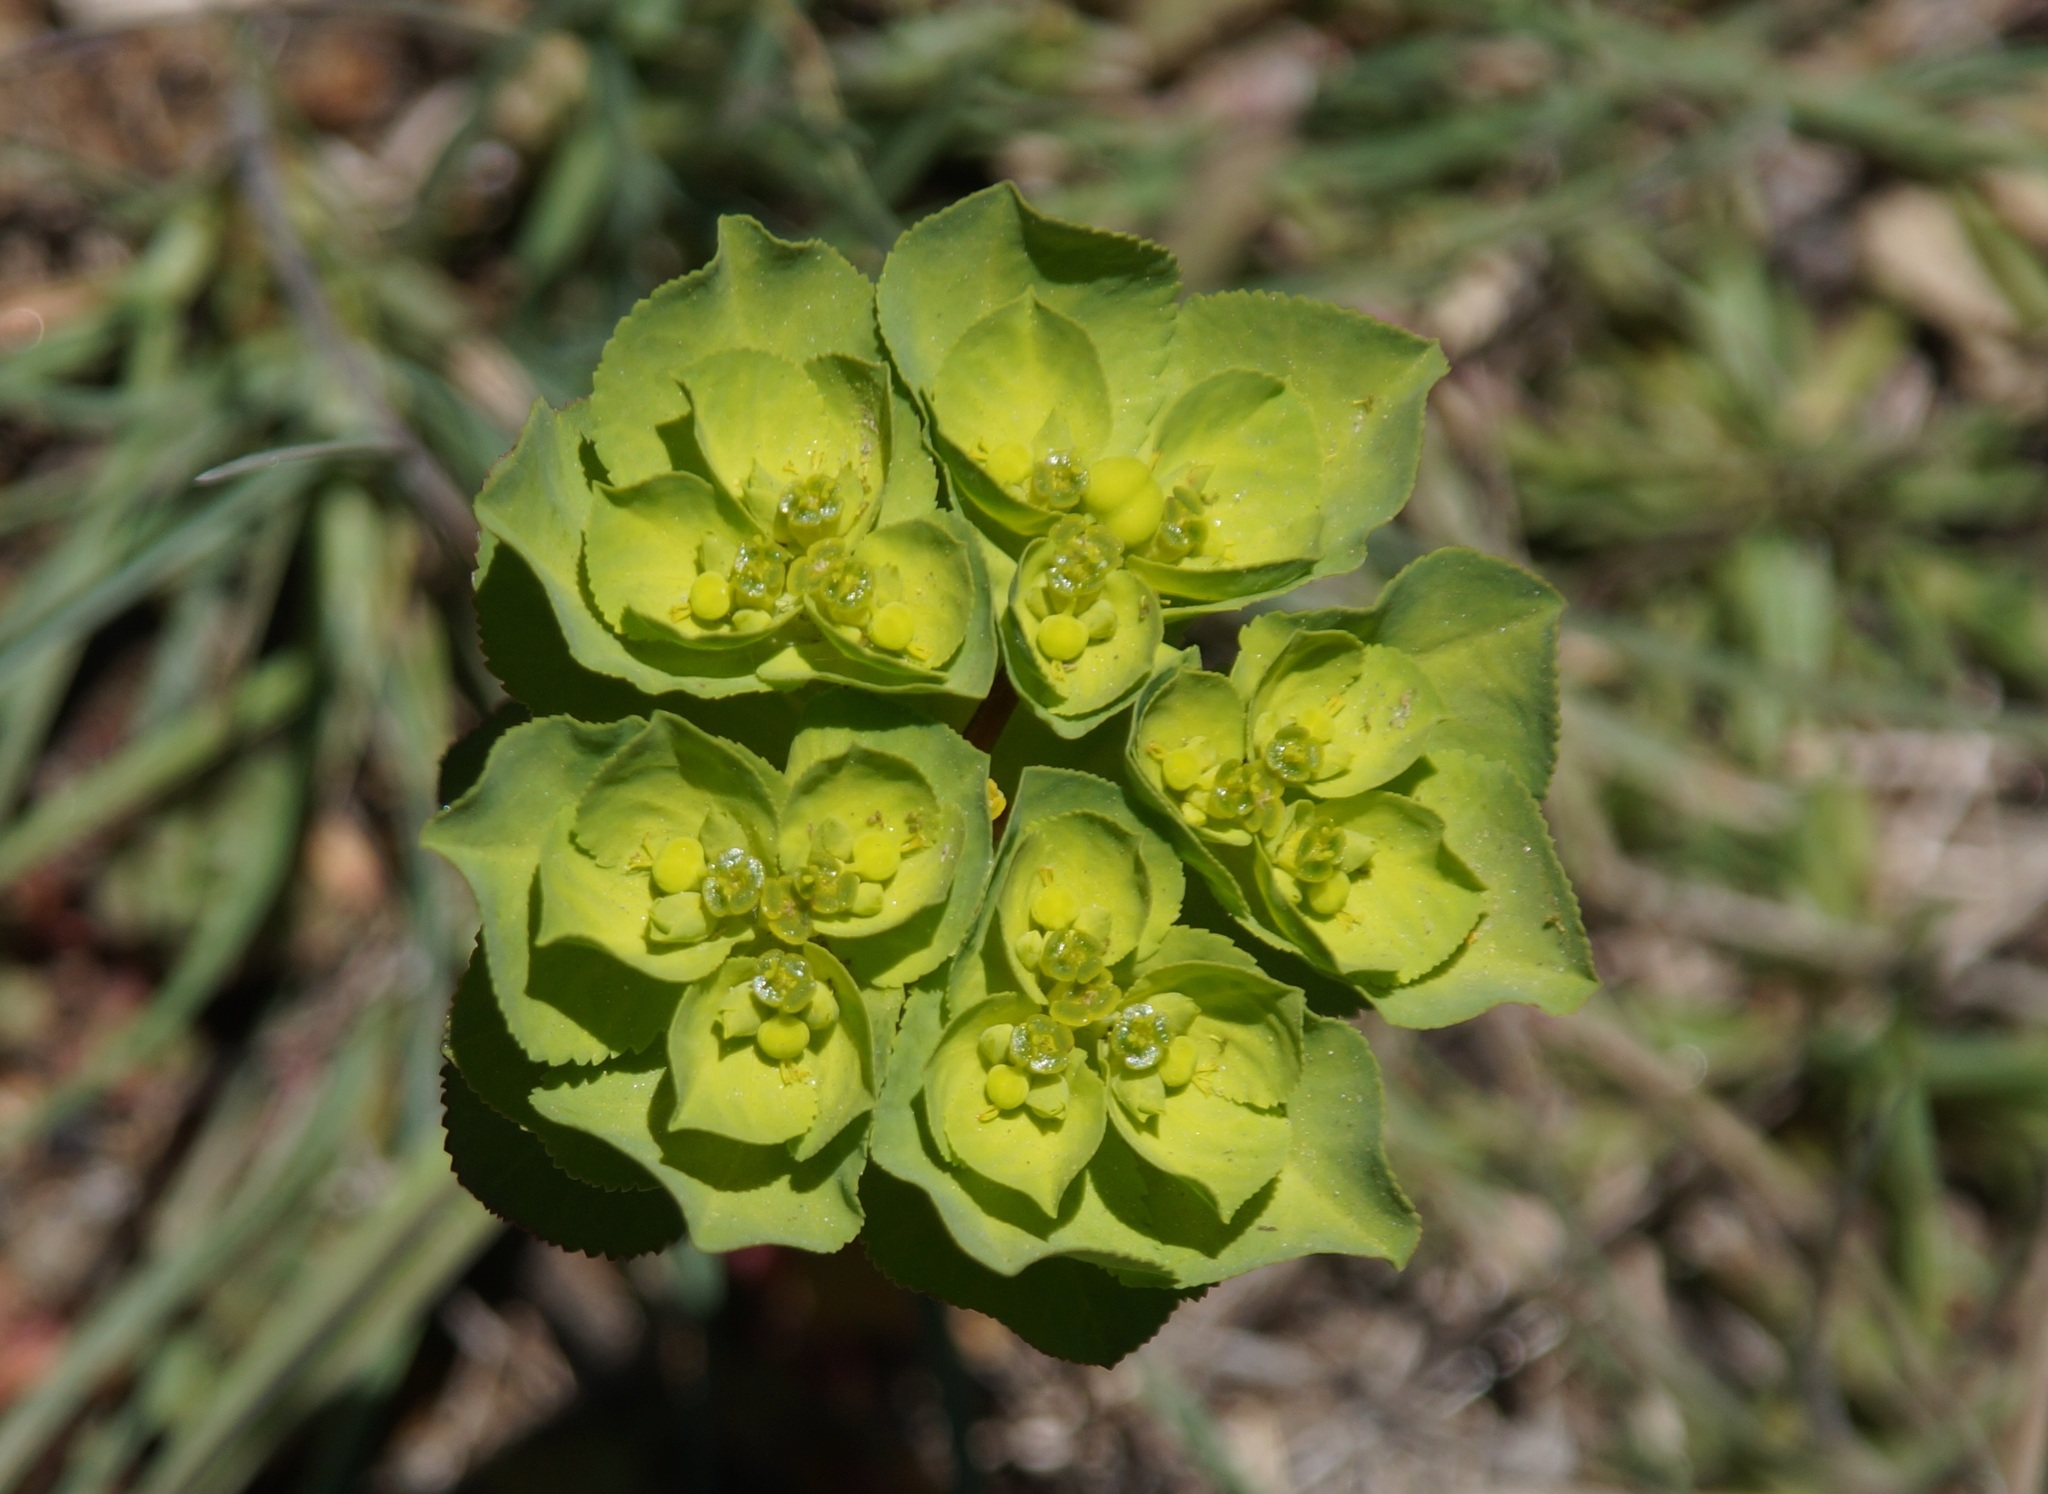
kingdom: Plantae
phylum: Tracheophyta
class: Magnoliopsida
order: Malpighiales
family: Euphorbiaceae
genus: Euphorbia
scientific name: Euphorbia helioscopia
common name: Sun spurge
